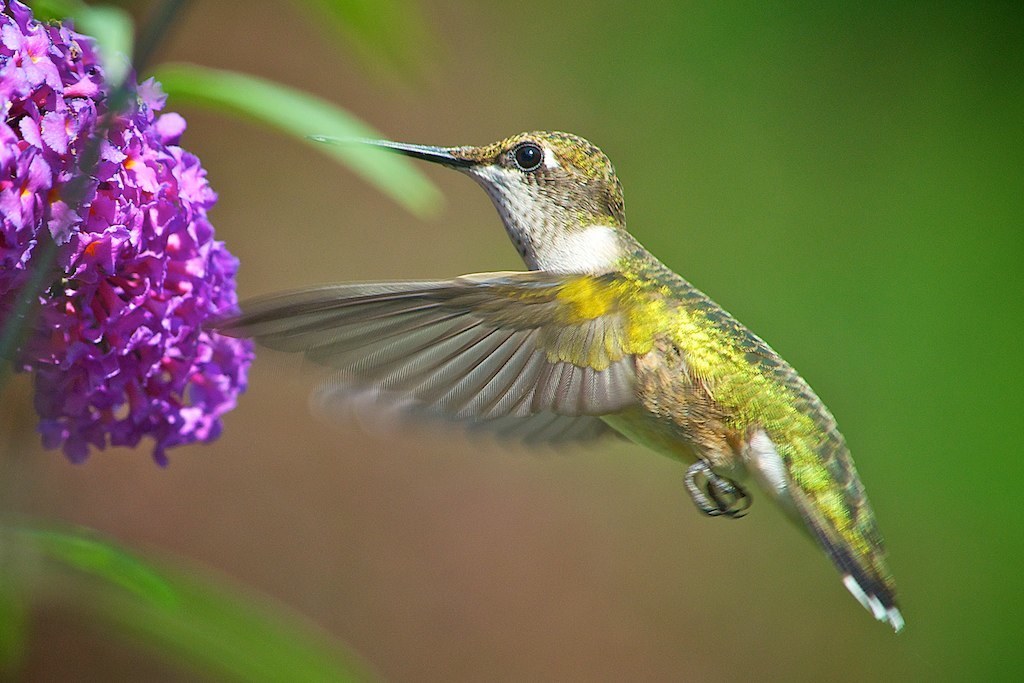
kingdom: Animalia
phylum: Chordata
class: Aves
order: Apodiformes
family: Trochilidae
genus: Archilochus
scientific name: Archilochus colubris
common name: Ruby-throated hummingbird
